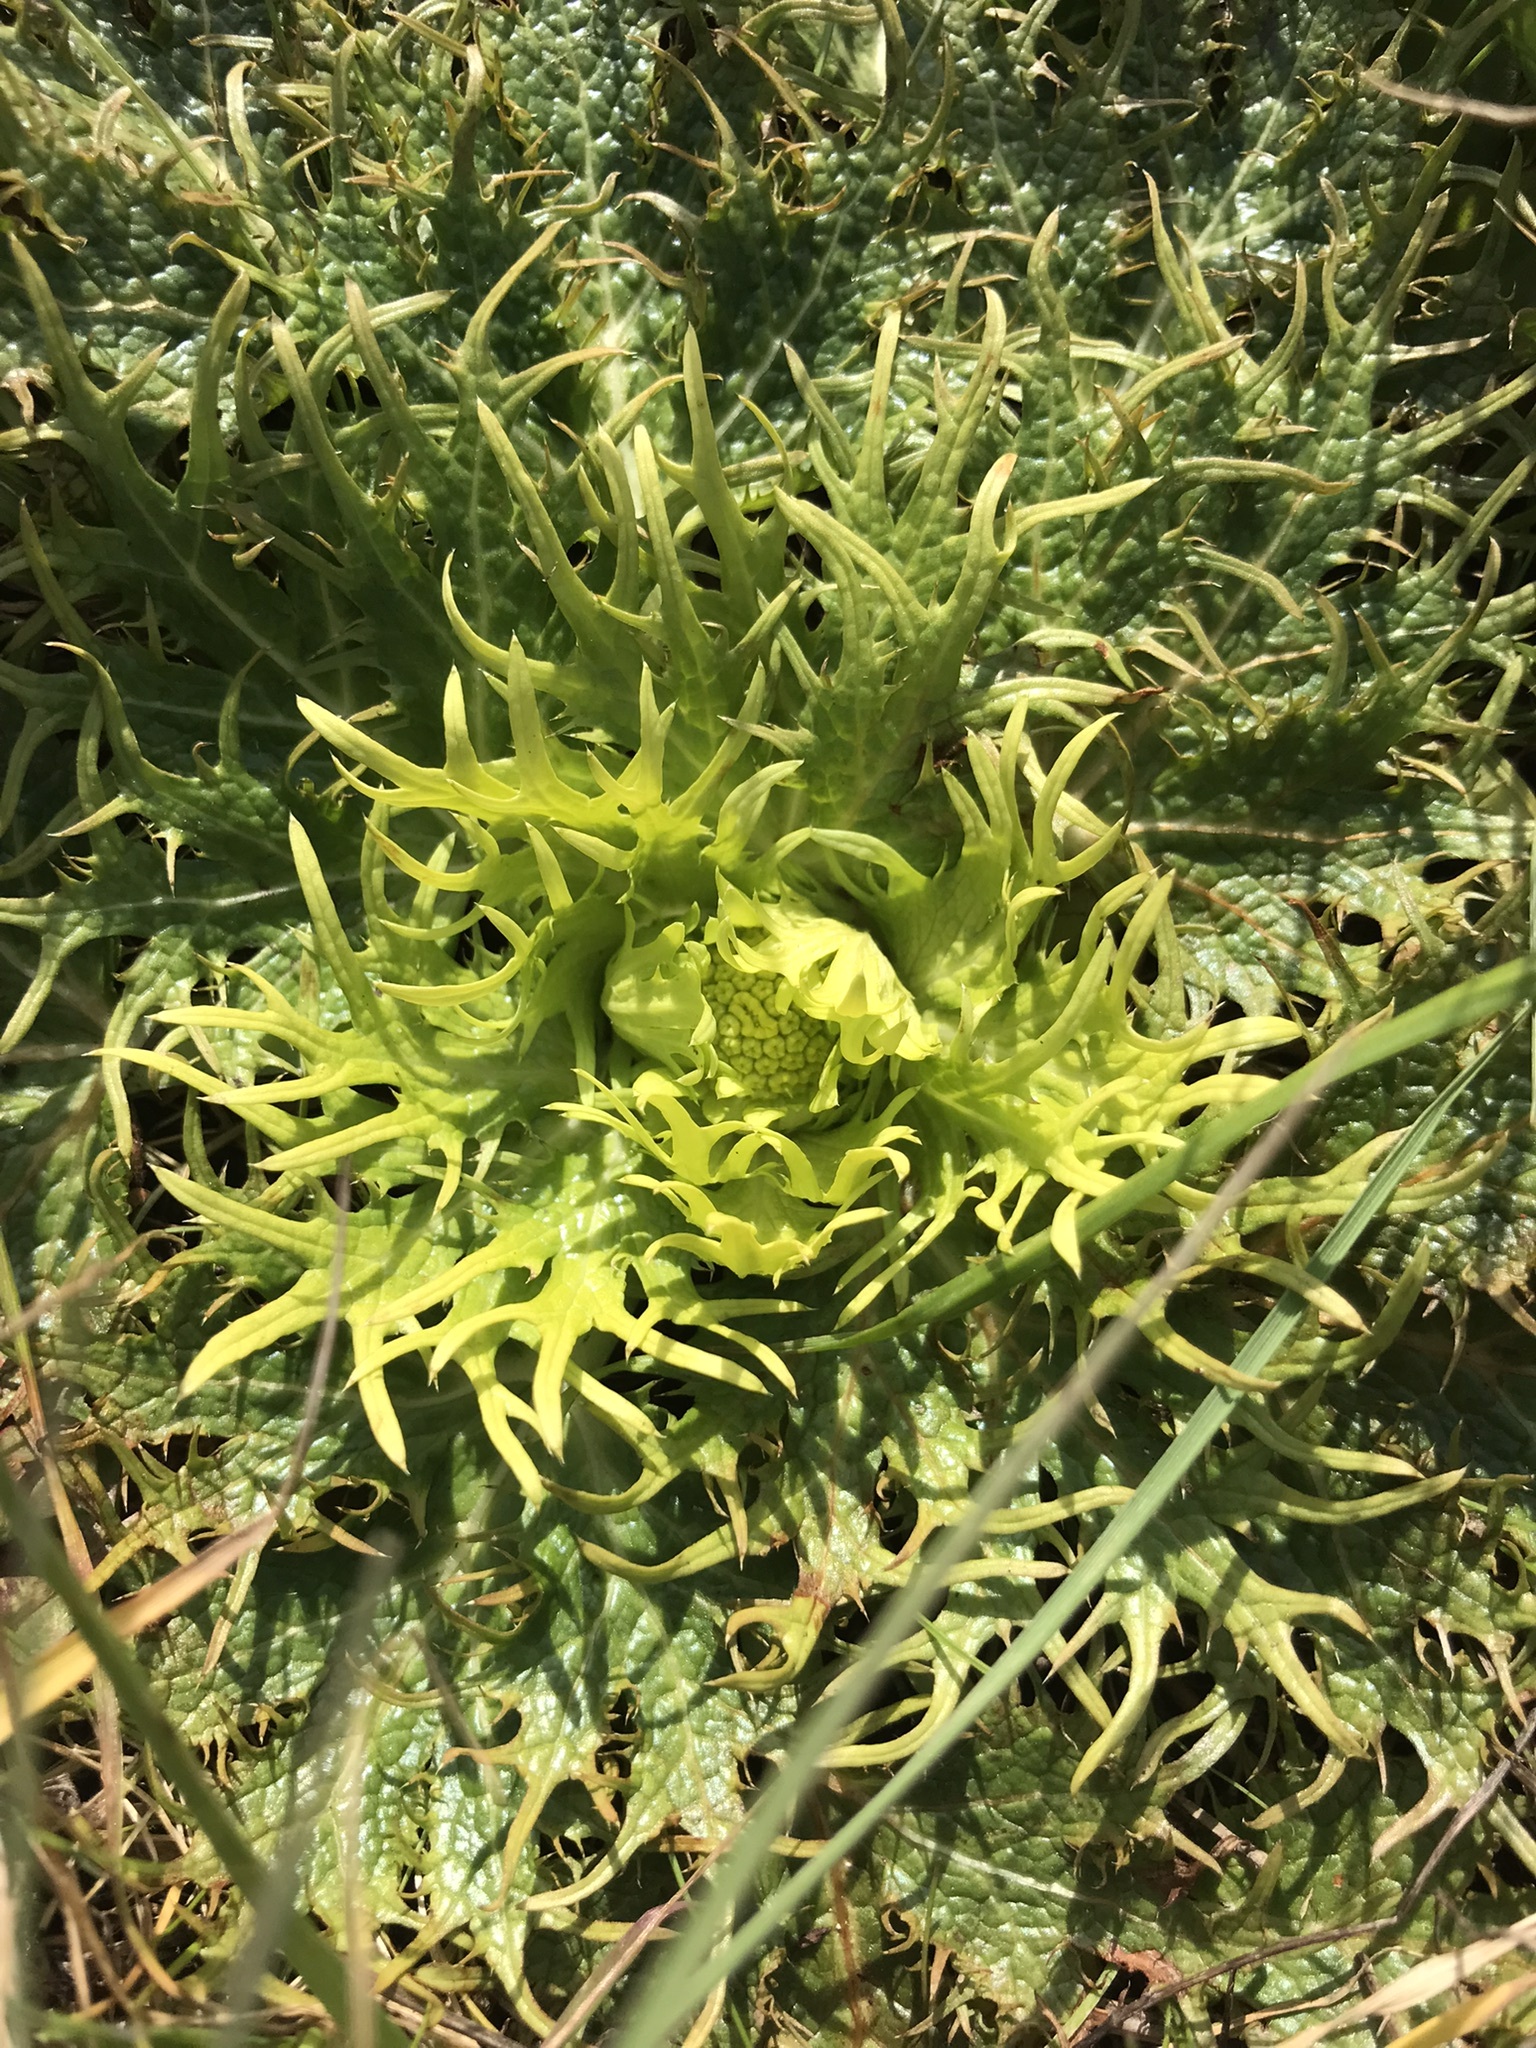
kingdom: Plantae
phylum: Tracheophyta
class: Magnoliopsida
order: Apiales
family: Apiaceae
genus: Sanicula
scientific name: Sanicula arctopoides
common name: Footsteps-of-spring
